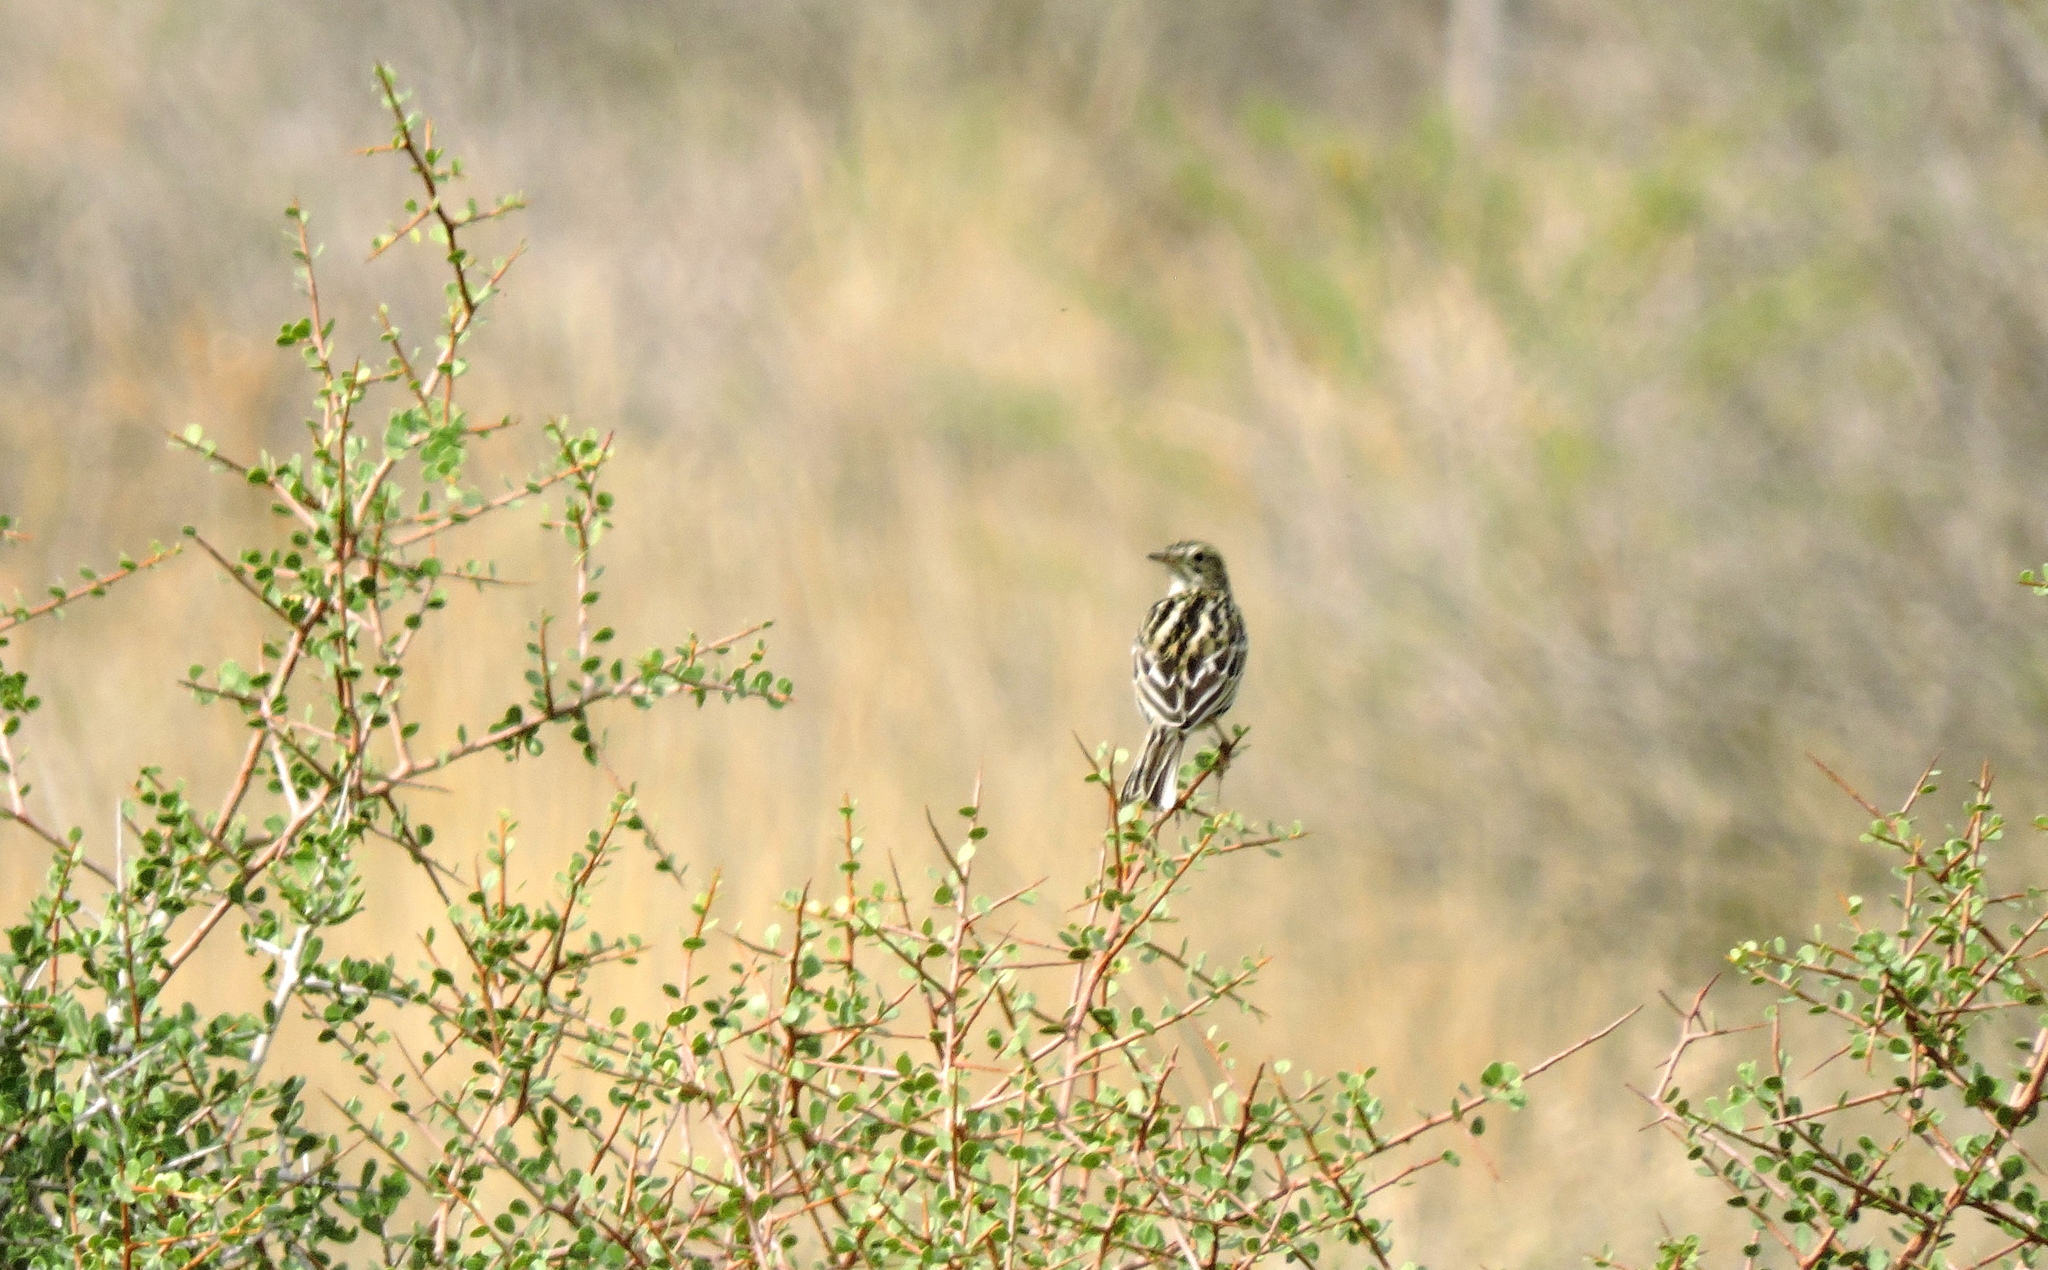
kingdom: Animalia
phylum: Chordata
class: Aves
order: Passeriformes
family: Motacillidae
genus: Anthus
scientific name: Anthus correndera
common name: Correndera pipit
